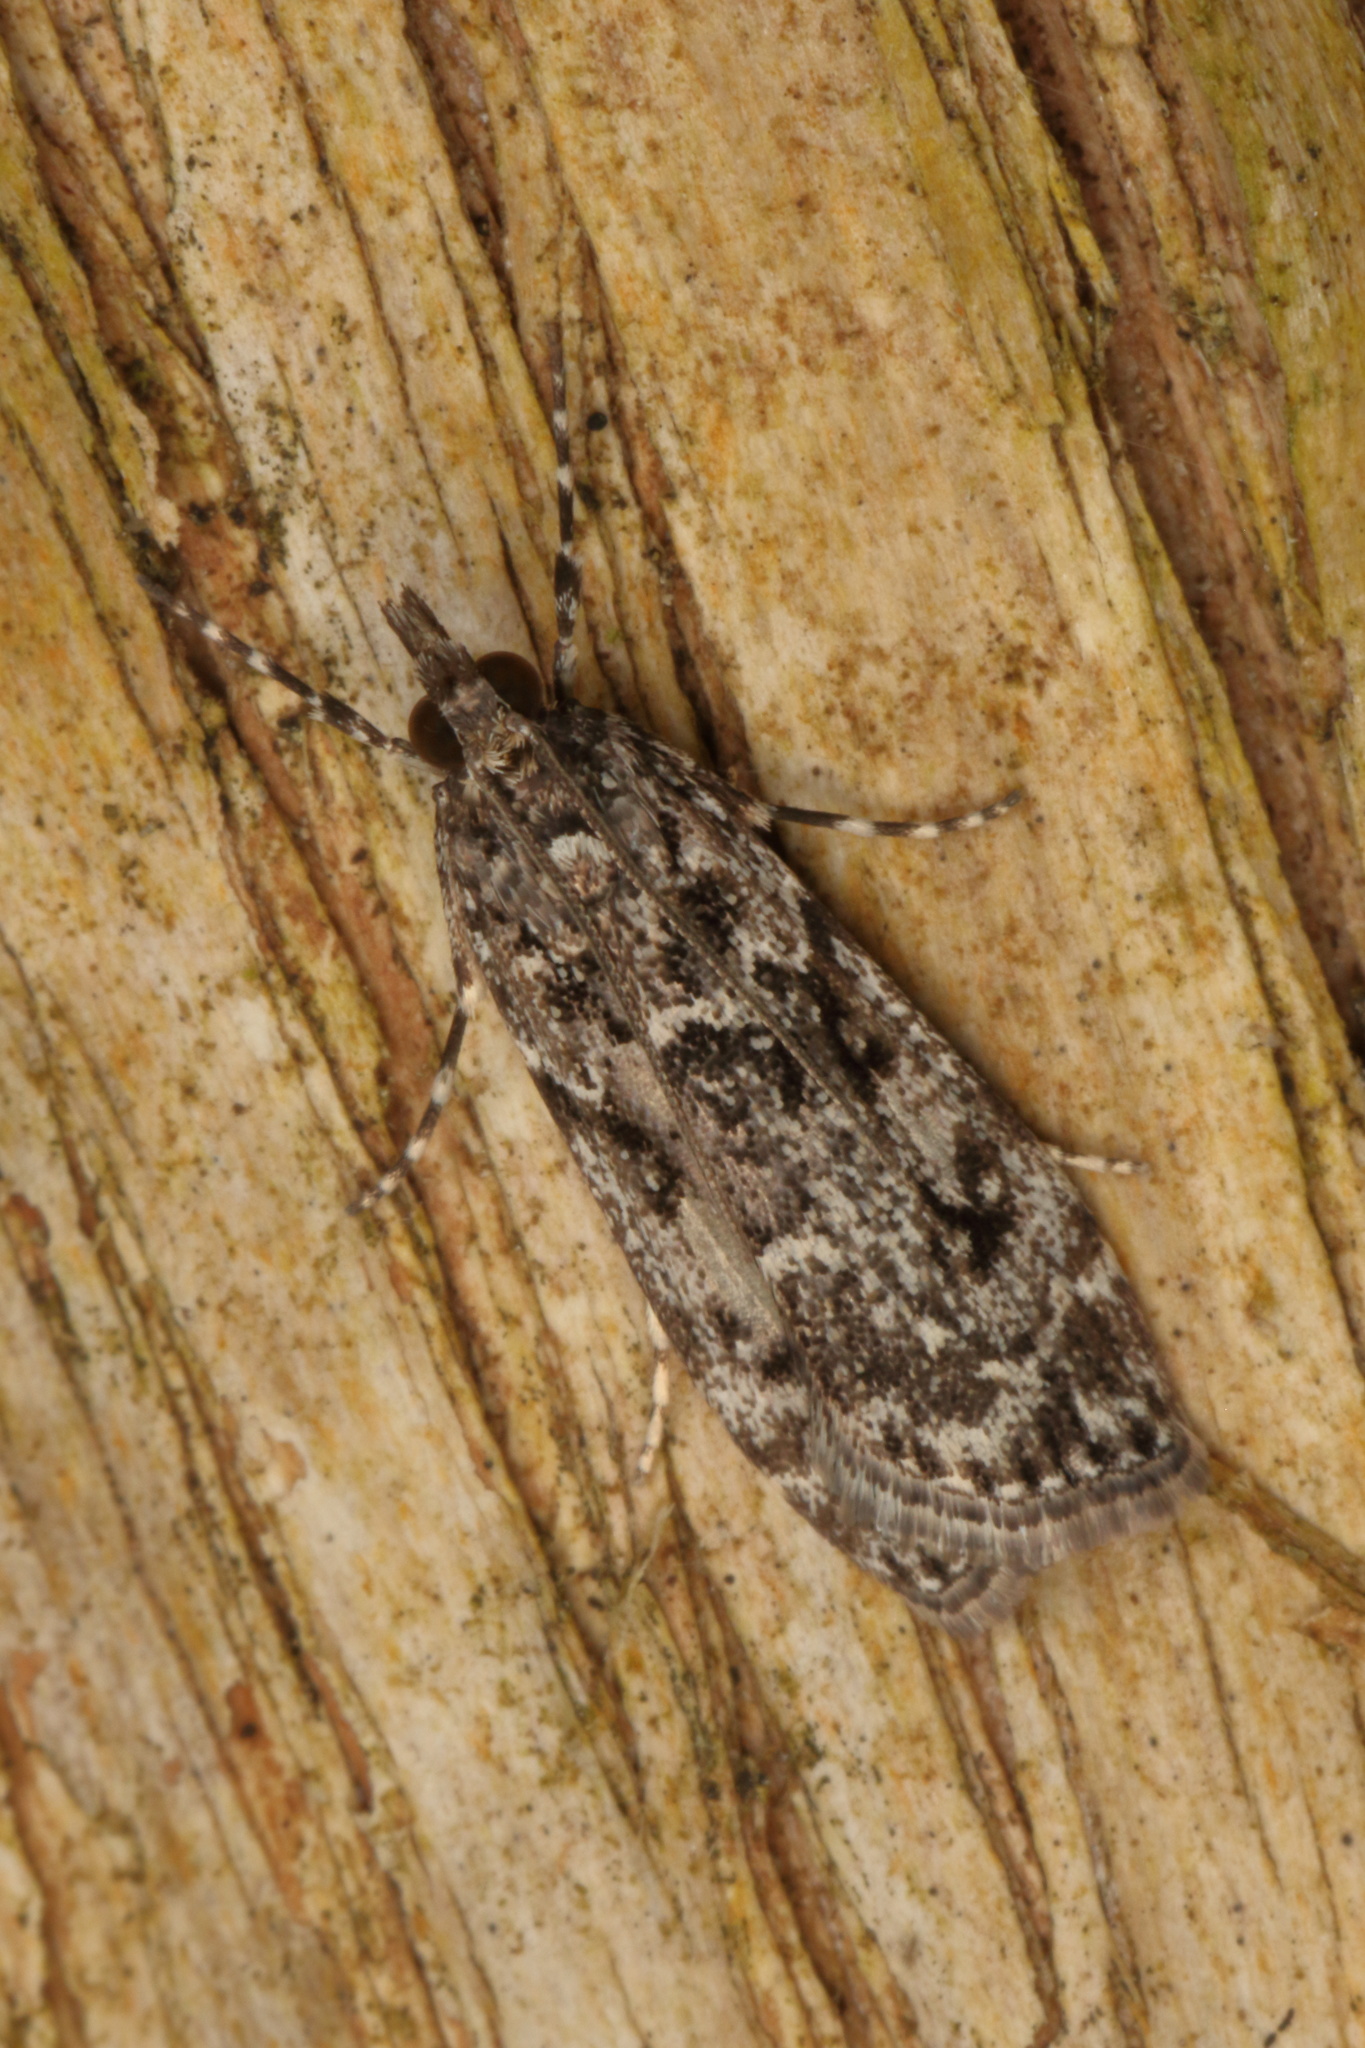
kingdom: Animalia
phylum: Arthropoda
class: Insecta
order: Lepidoptera
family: Crambidae
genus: Eudonia
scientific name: Eudonia philerga
